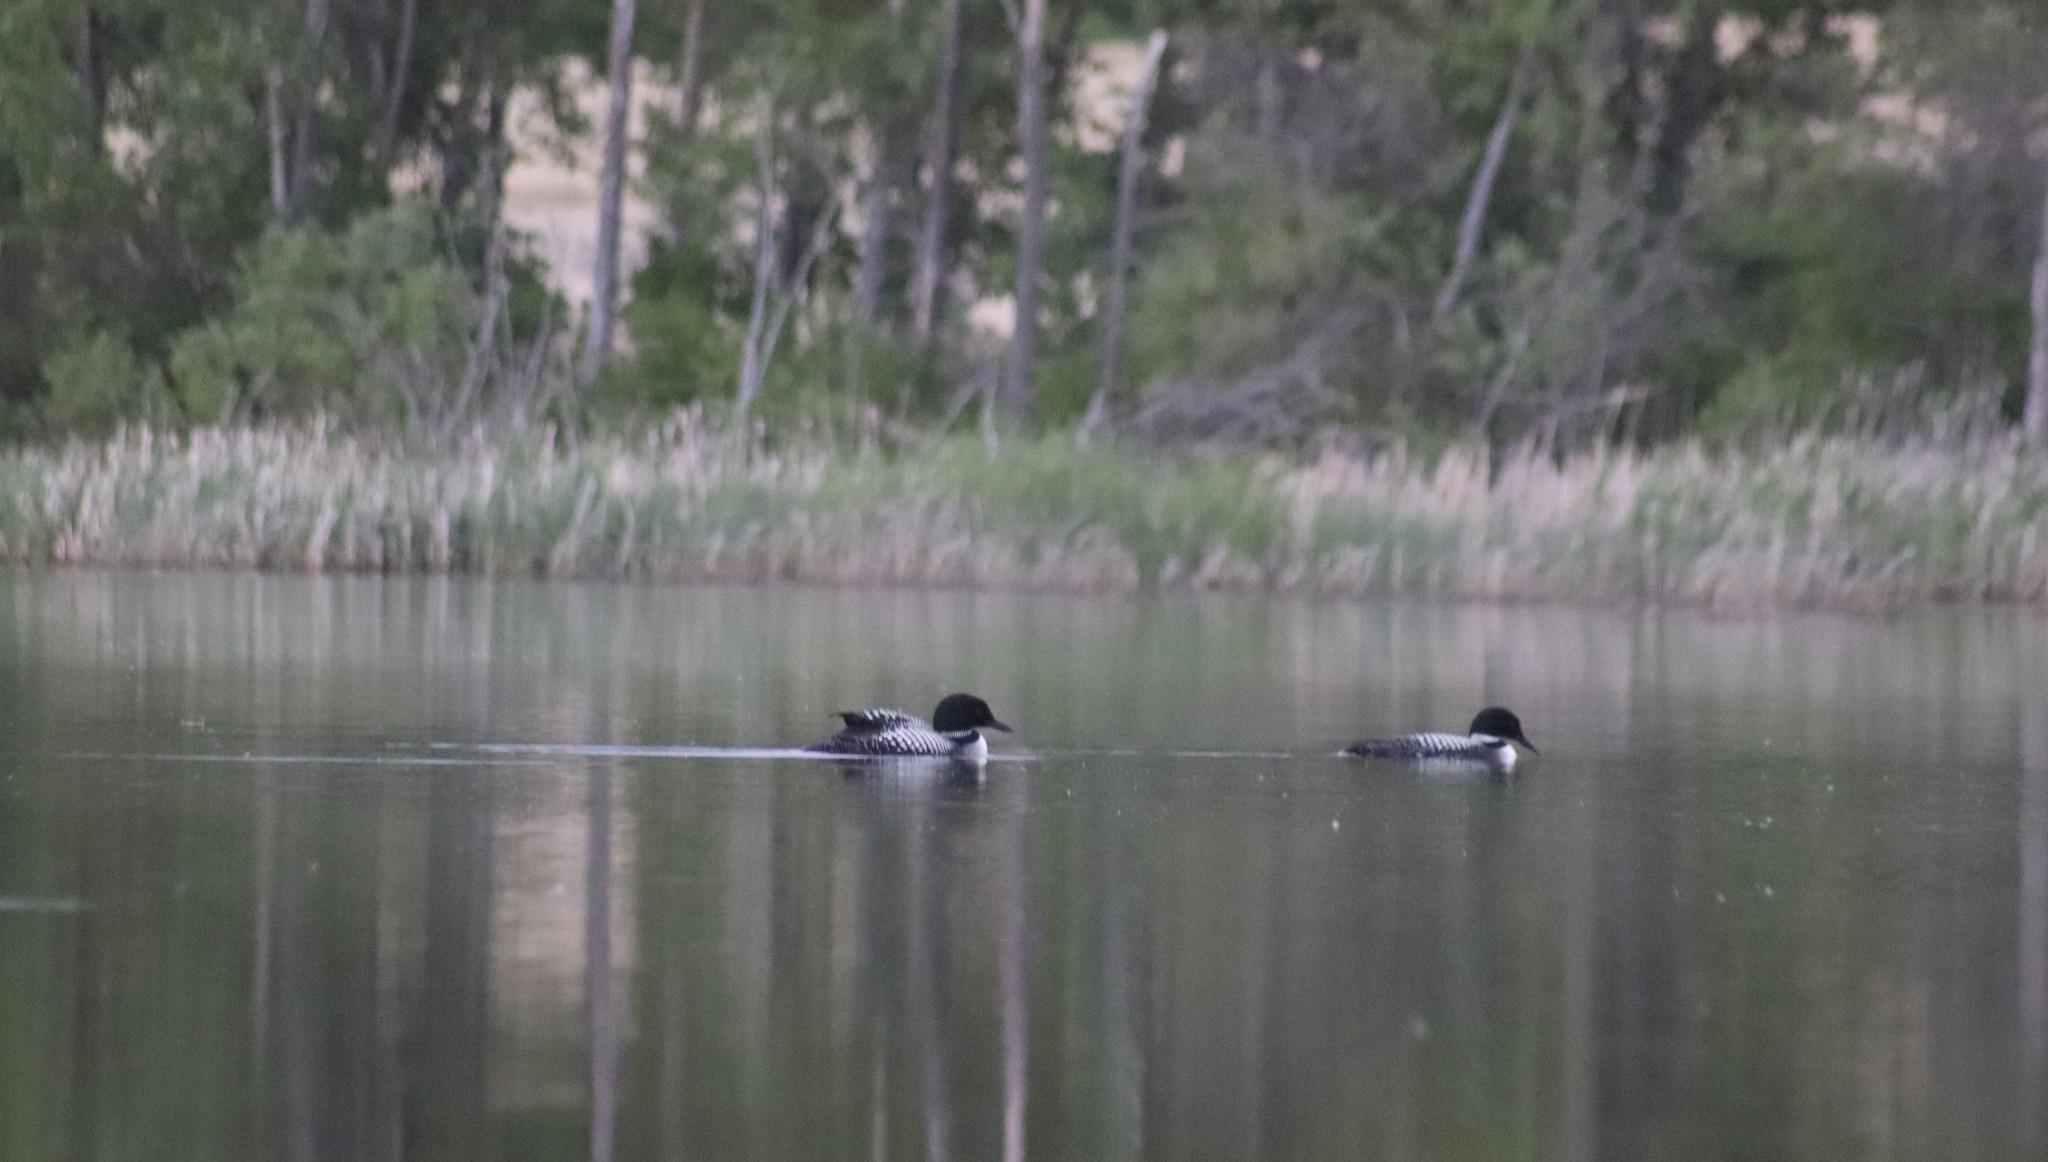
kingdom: Animalia
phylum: Chordata
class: Aves
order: Gaviiformes
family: Gaviidae
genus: Gavia
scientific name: Gavia immer
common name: Common loon
